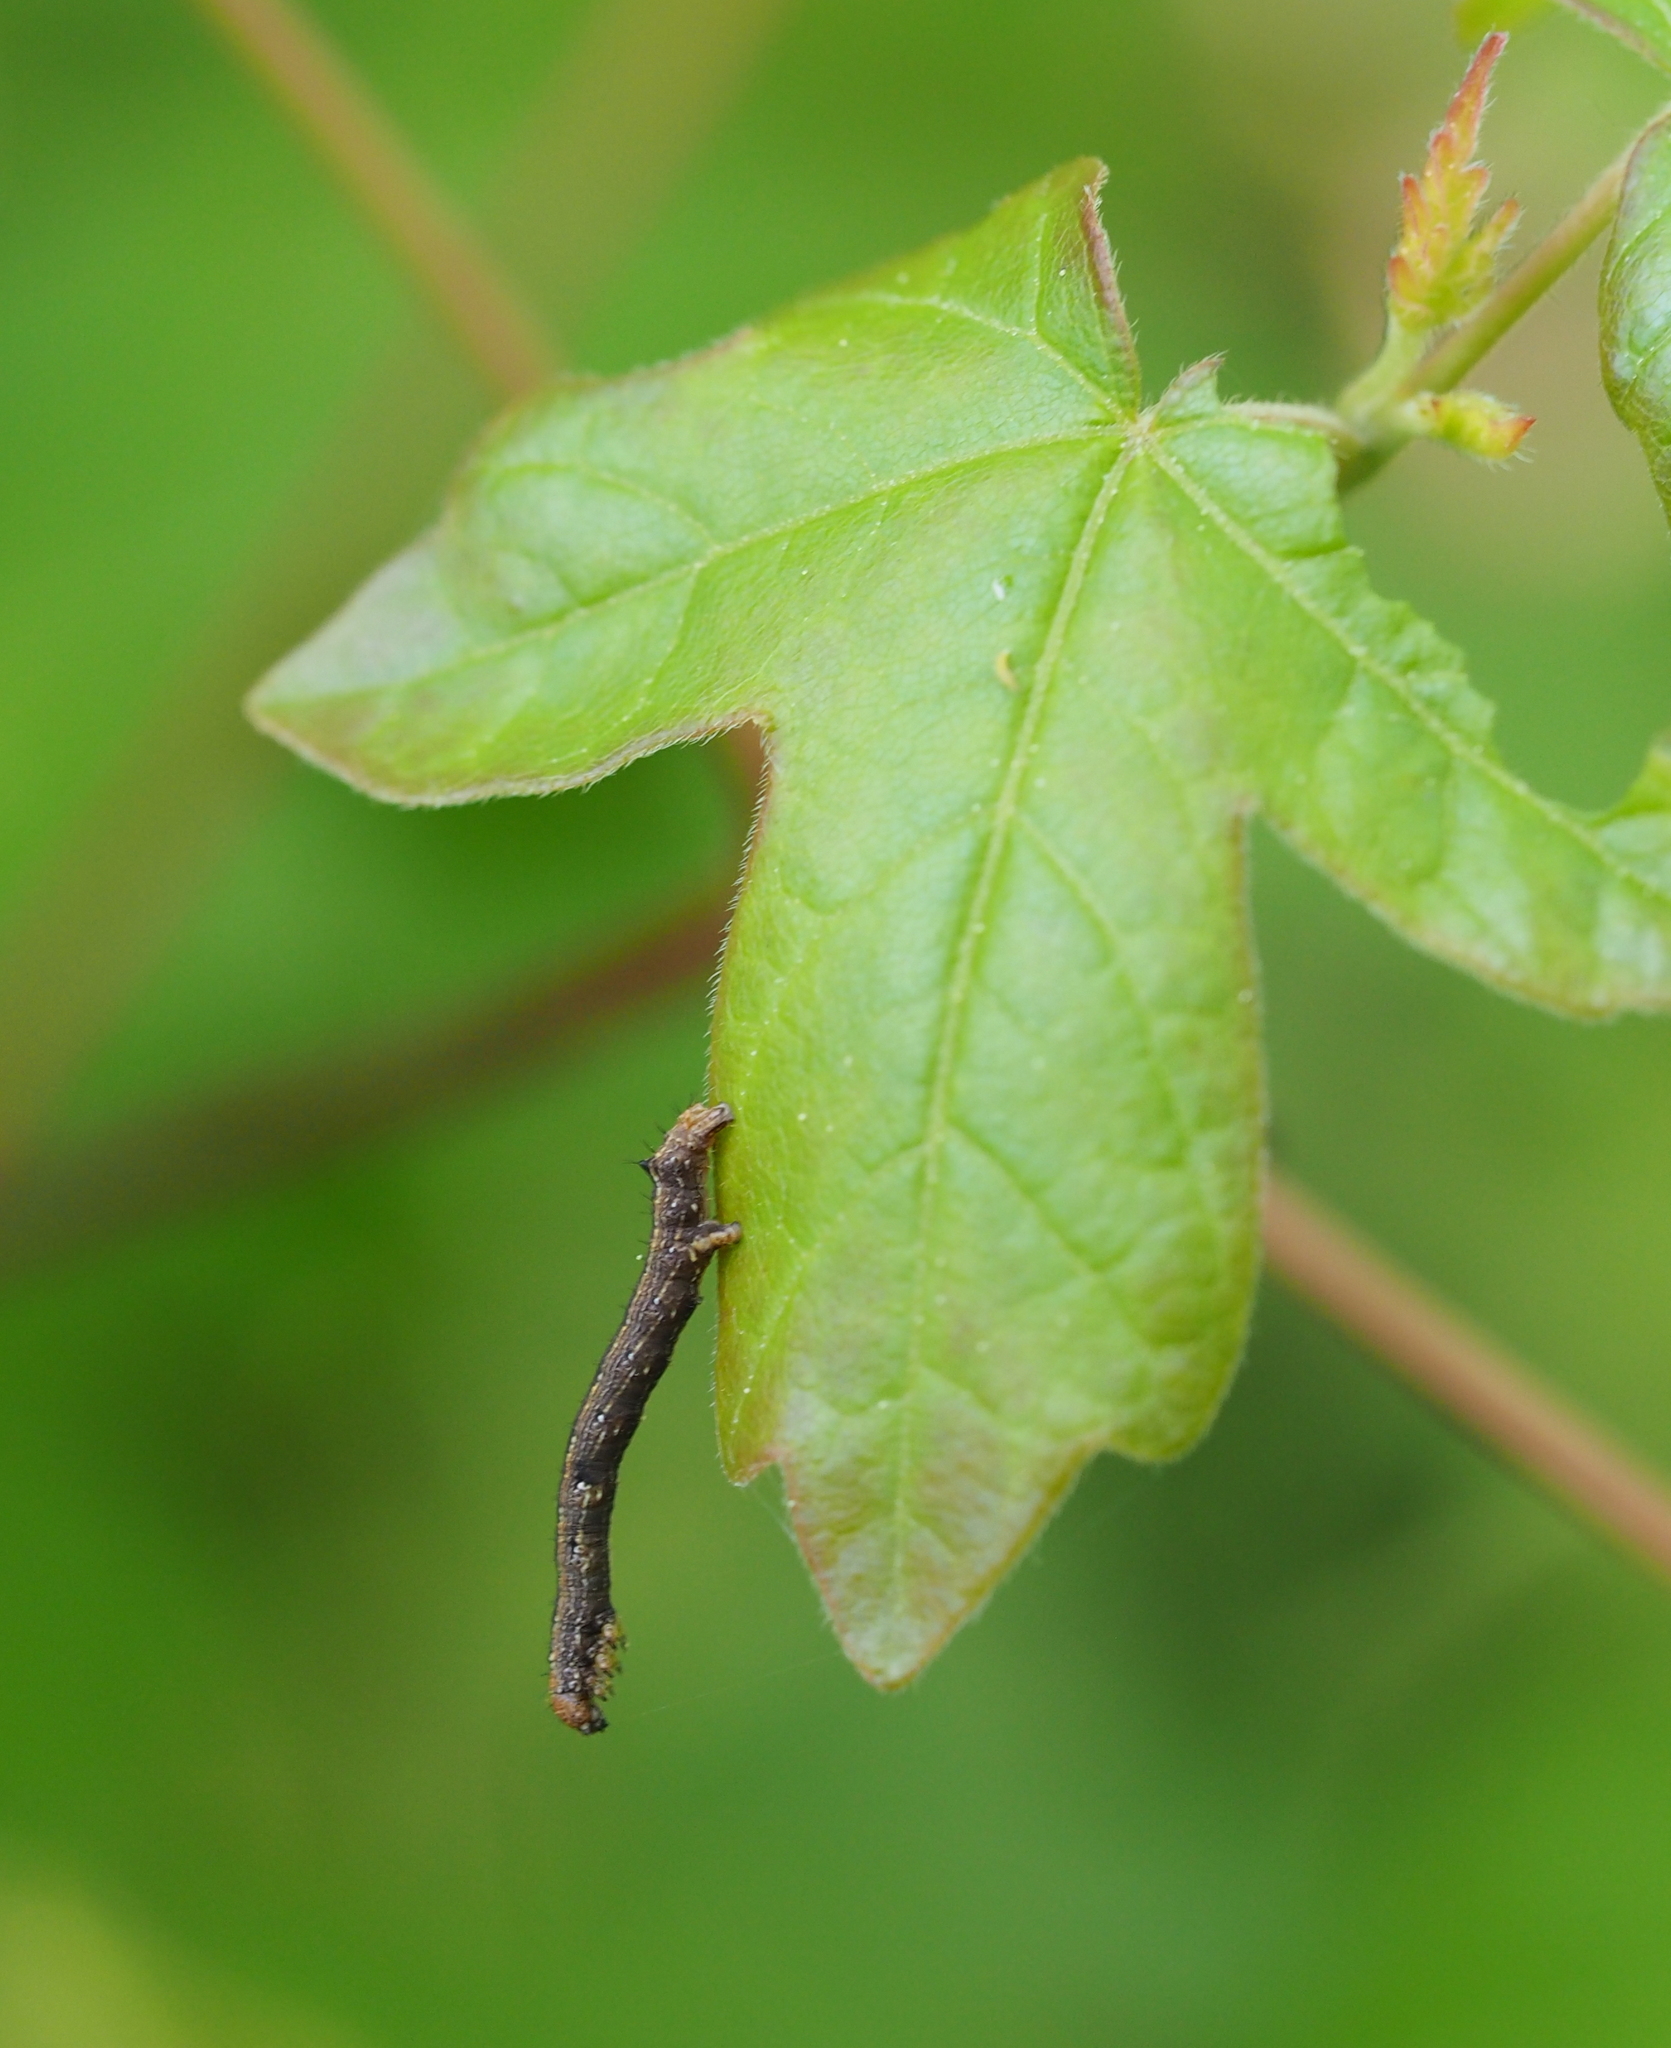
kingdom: Animalia
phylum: Arthropoda
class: Insecta
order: Lepidoptera
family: Geometridae
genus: Colotois
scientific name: Colotois pennaria
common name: Feathered thorn
